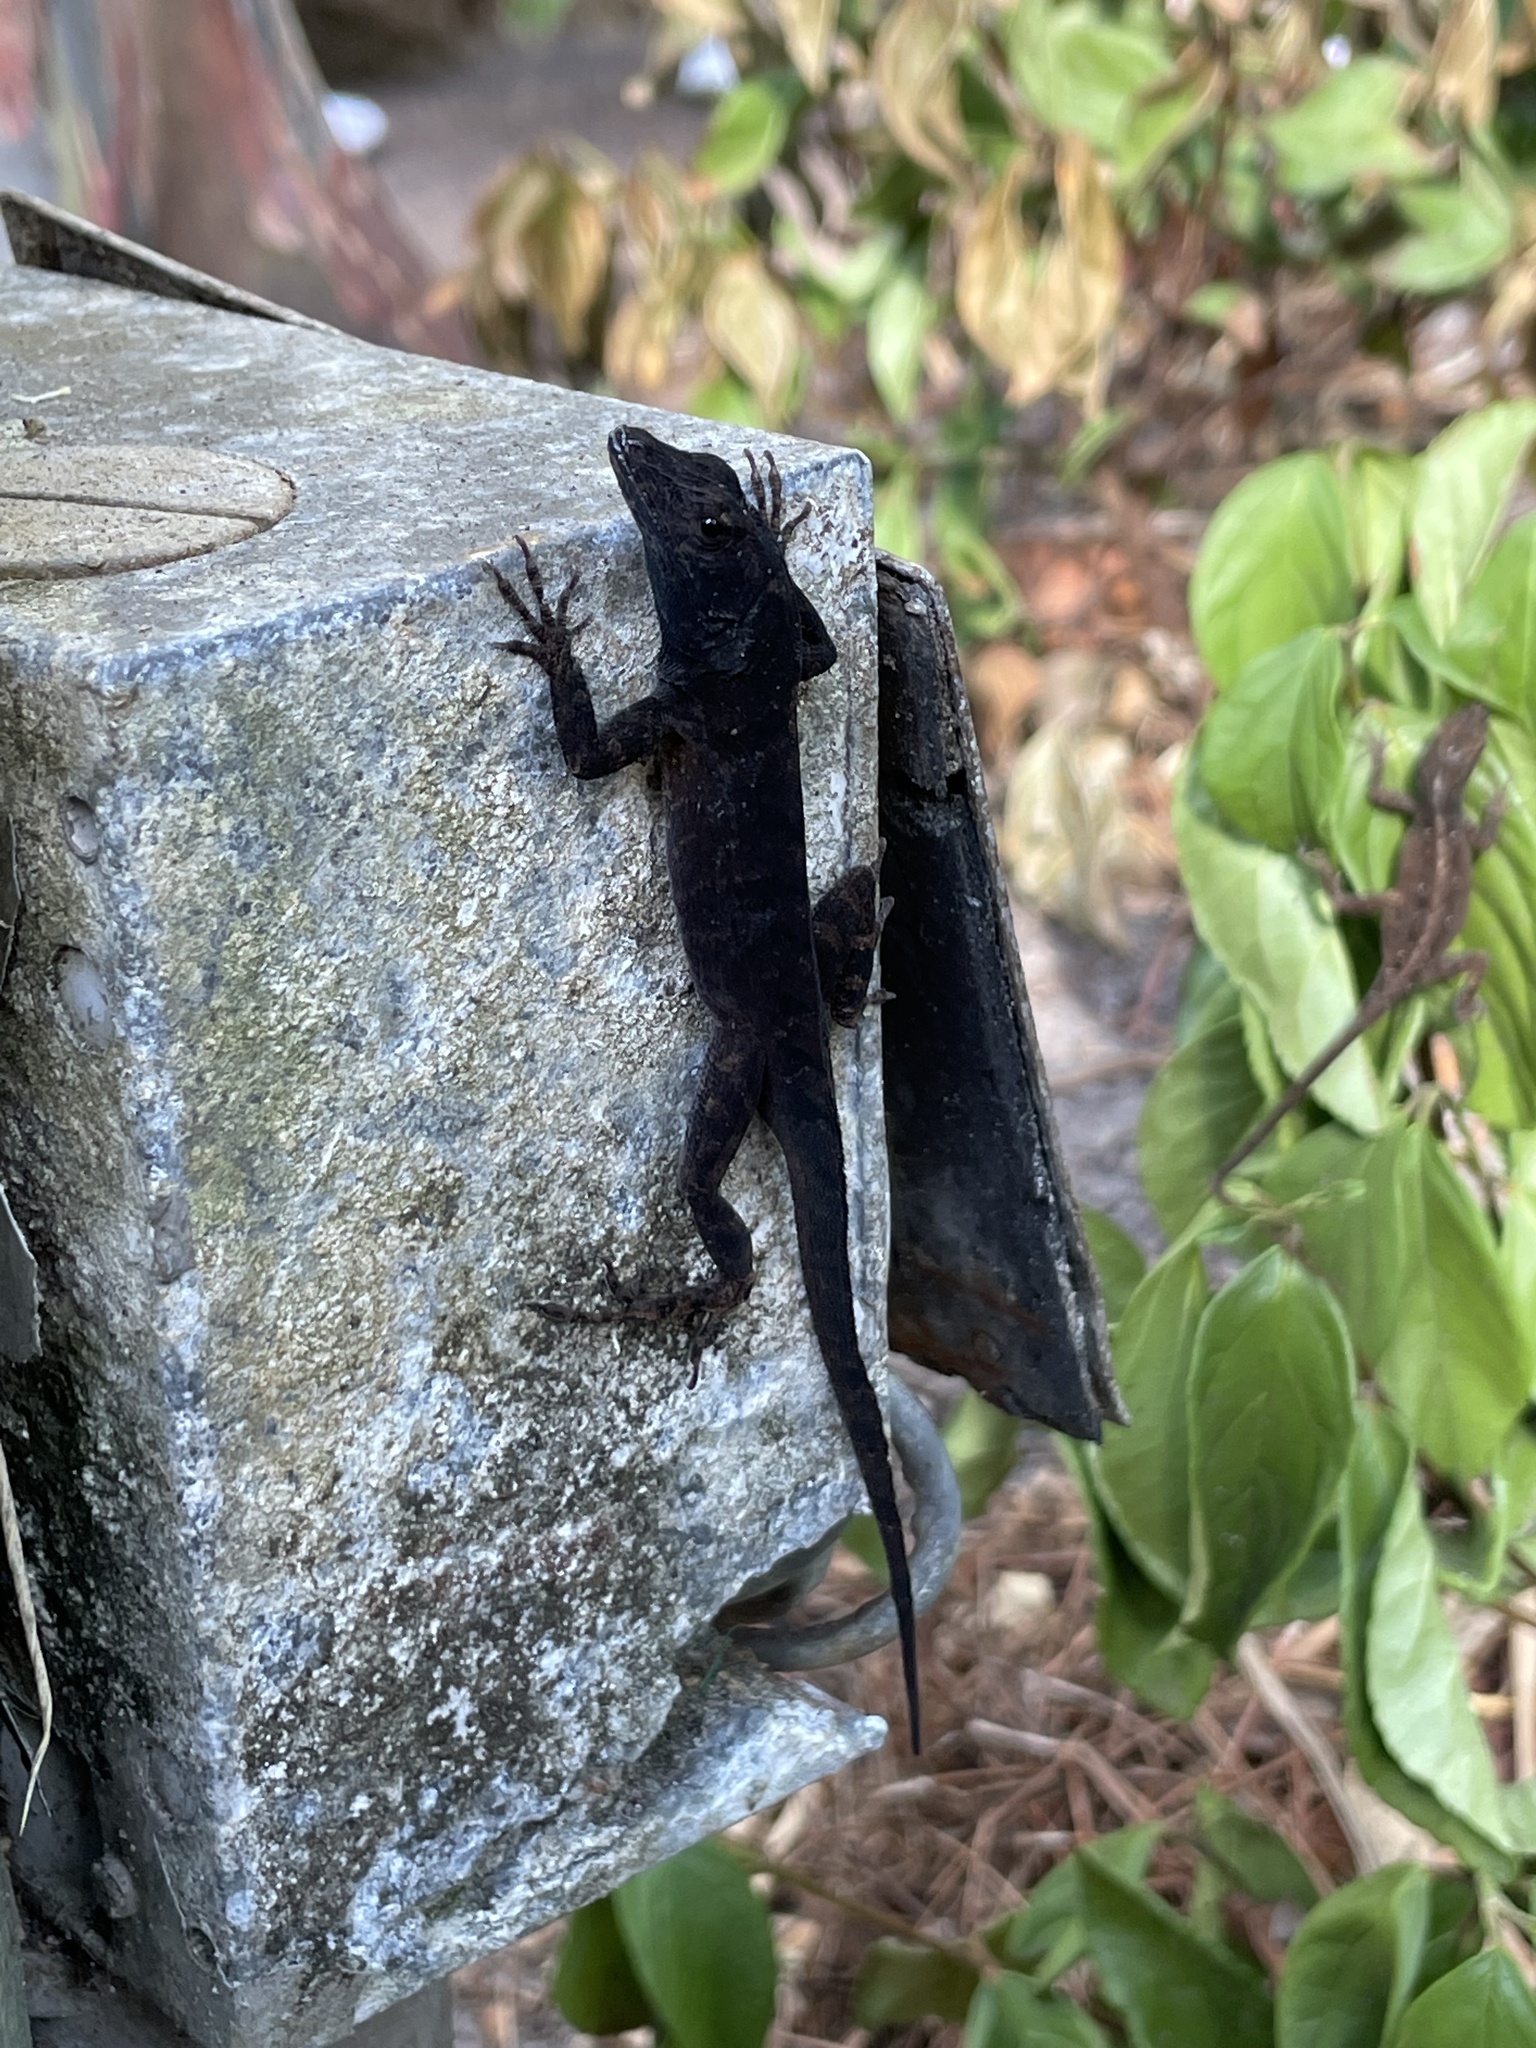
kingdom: Animalia
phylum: Chordata
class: Squamata
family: Dactyloidae
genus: Anolis
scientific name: Anolis sagrei
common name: Brown anole
